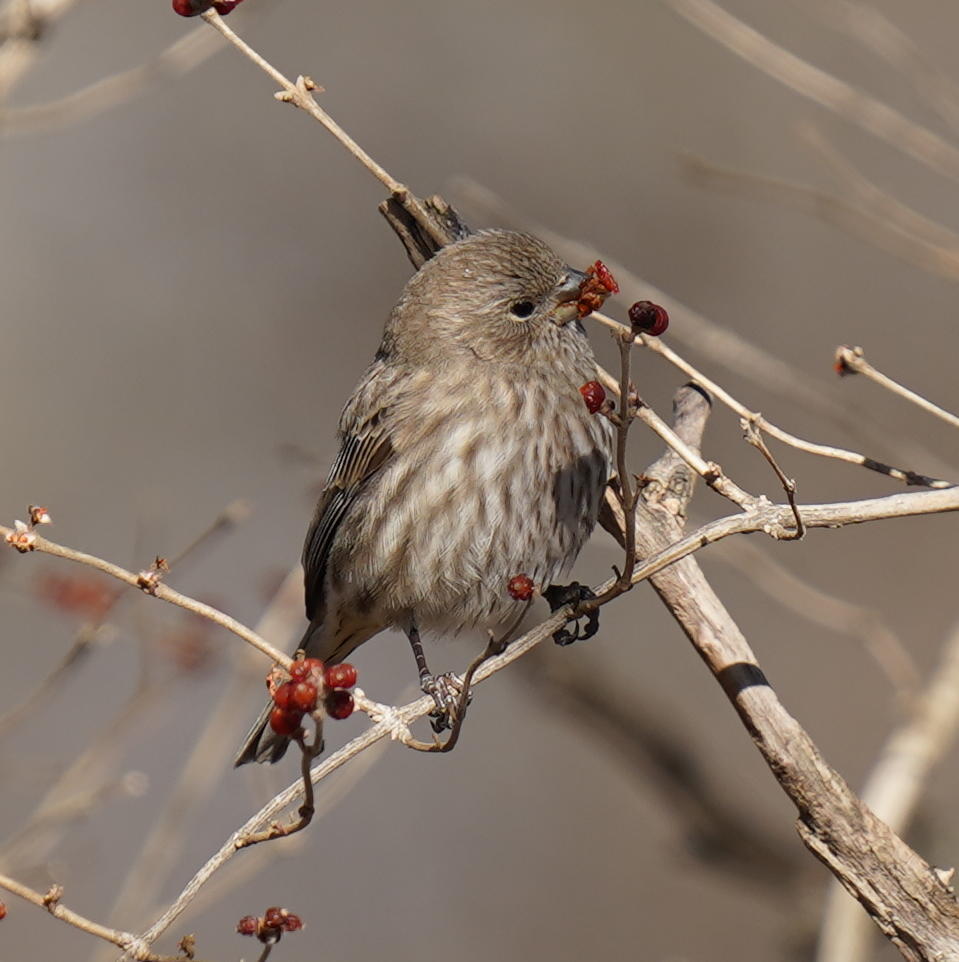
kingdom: Animalia
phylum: Chordata
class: Aves
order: Passeriformes
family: Fringillidae
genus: Haemorhous
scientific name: Haemorhous mexicanus
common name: House finch
